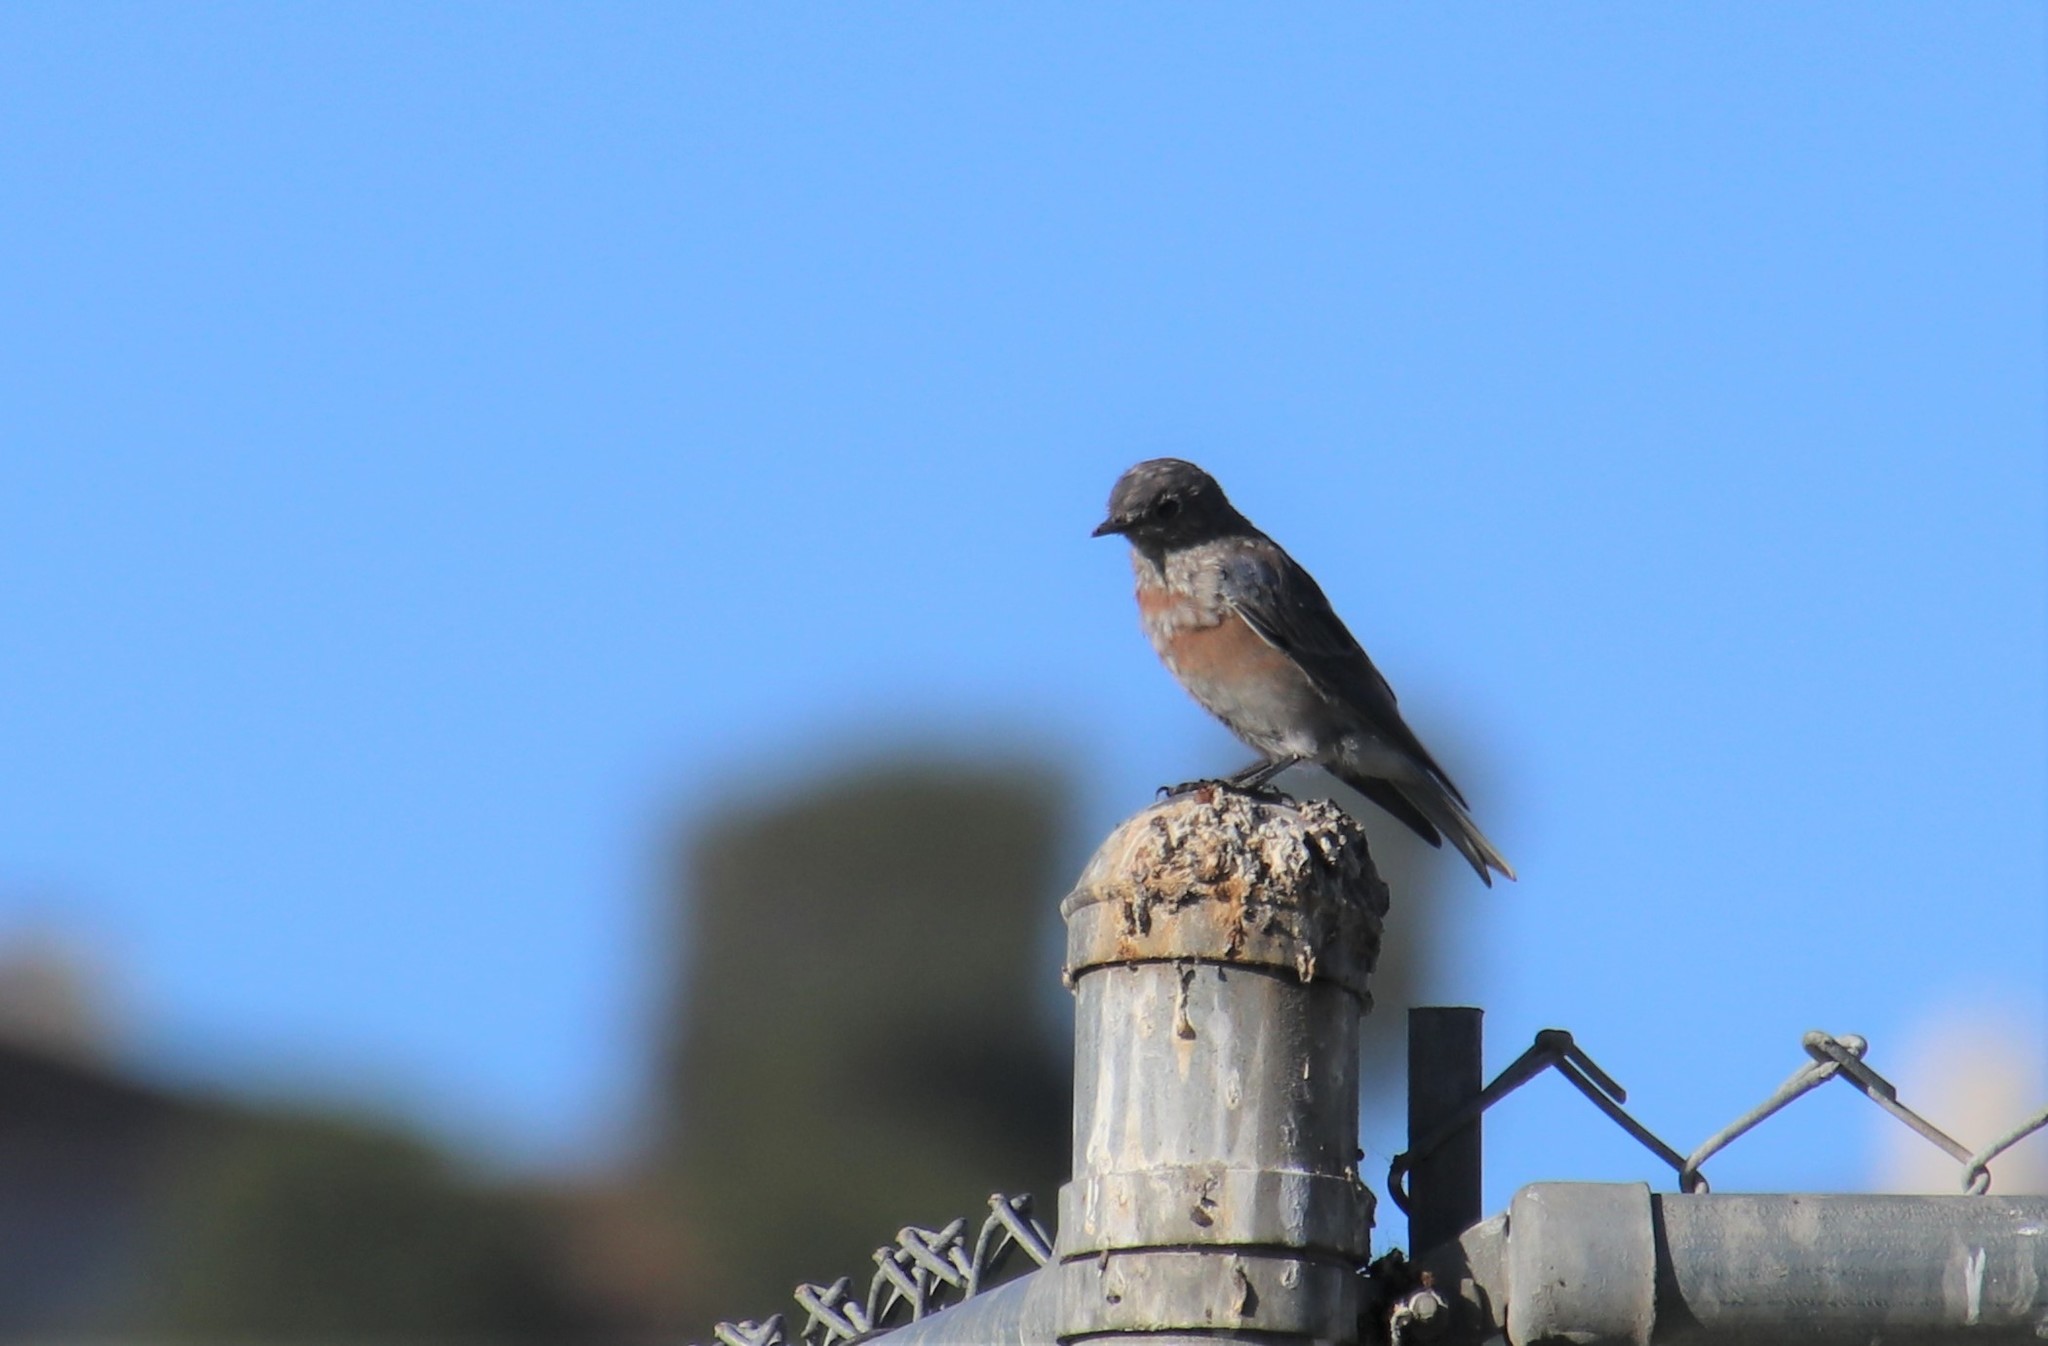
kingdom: Animalia
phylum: Chordata
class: Aves
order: Passeriformes
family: Turdidae
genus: Sialia
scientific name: Sialia mexicana
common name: Western bluebird
